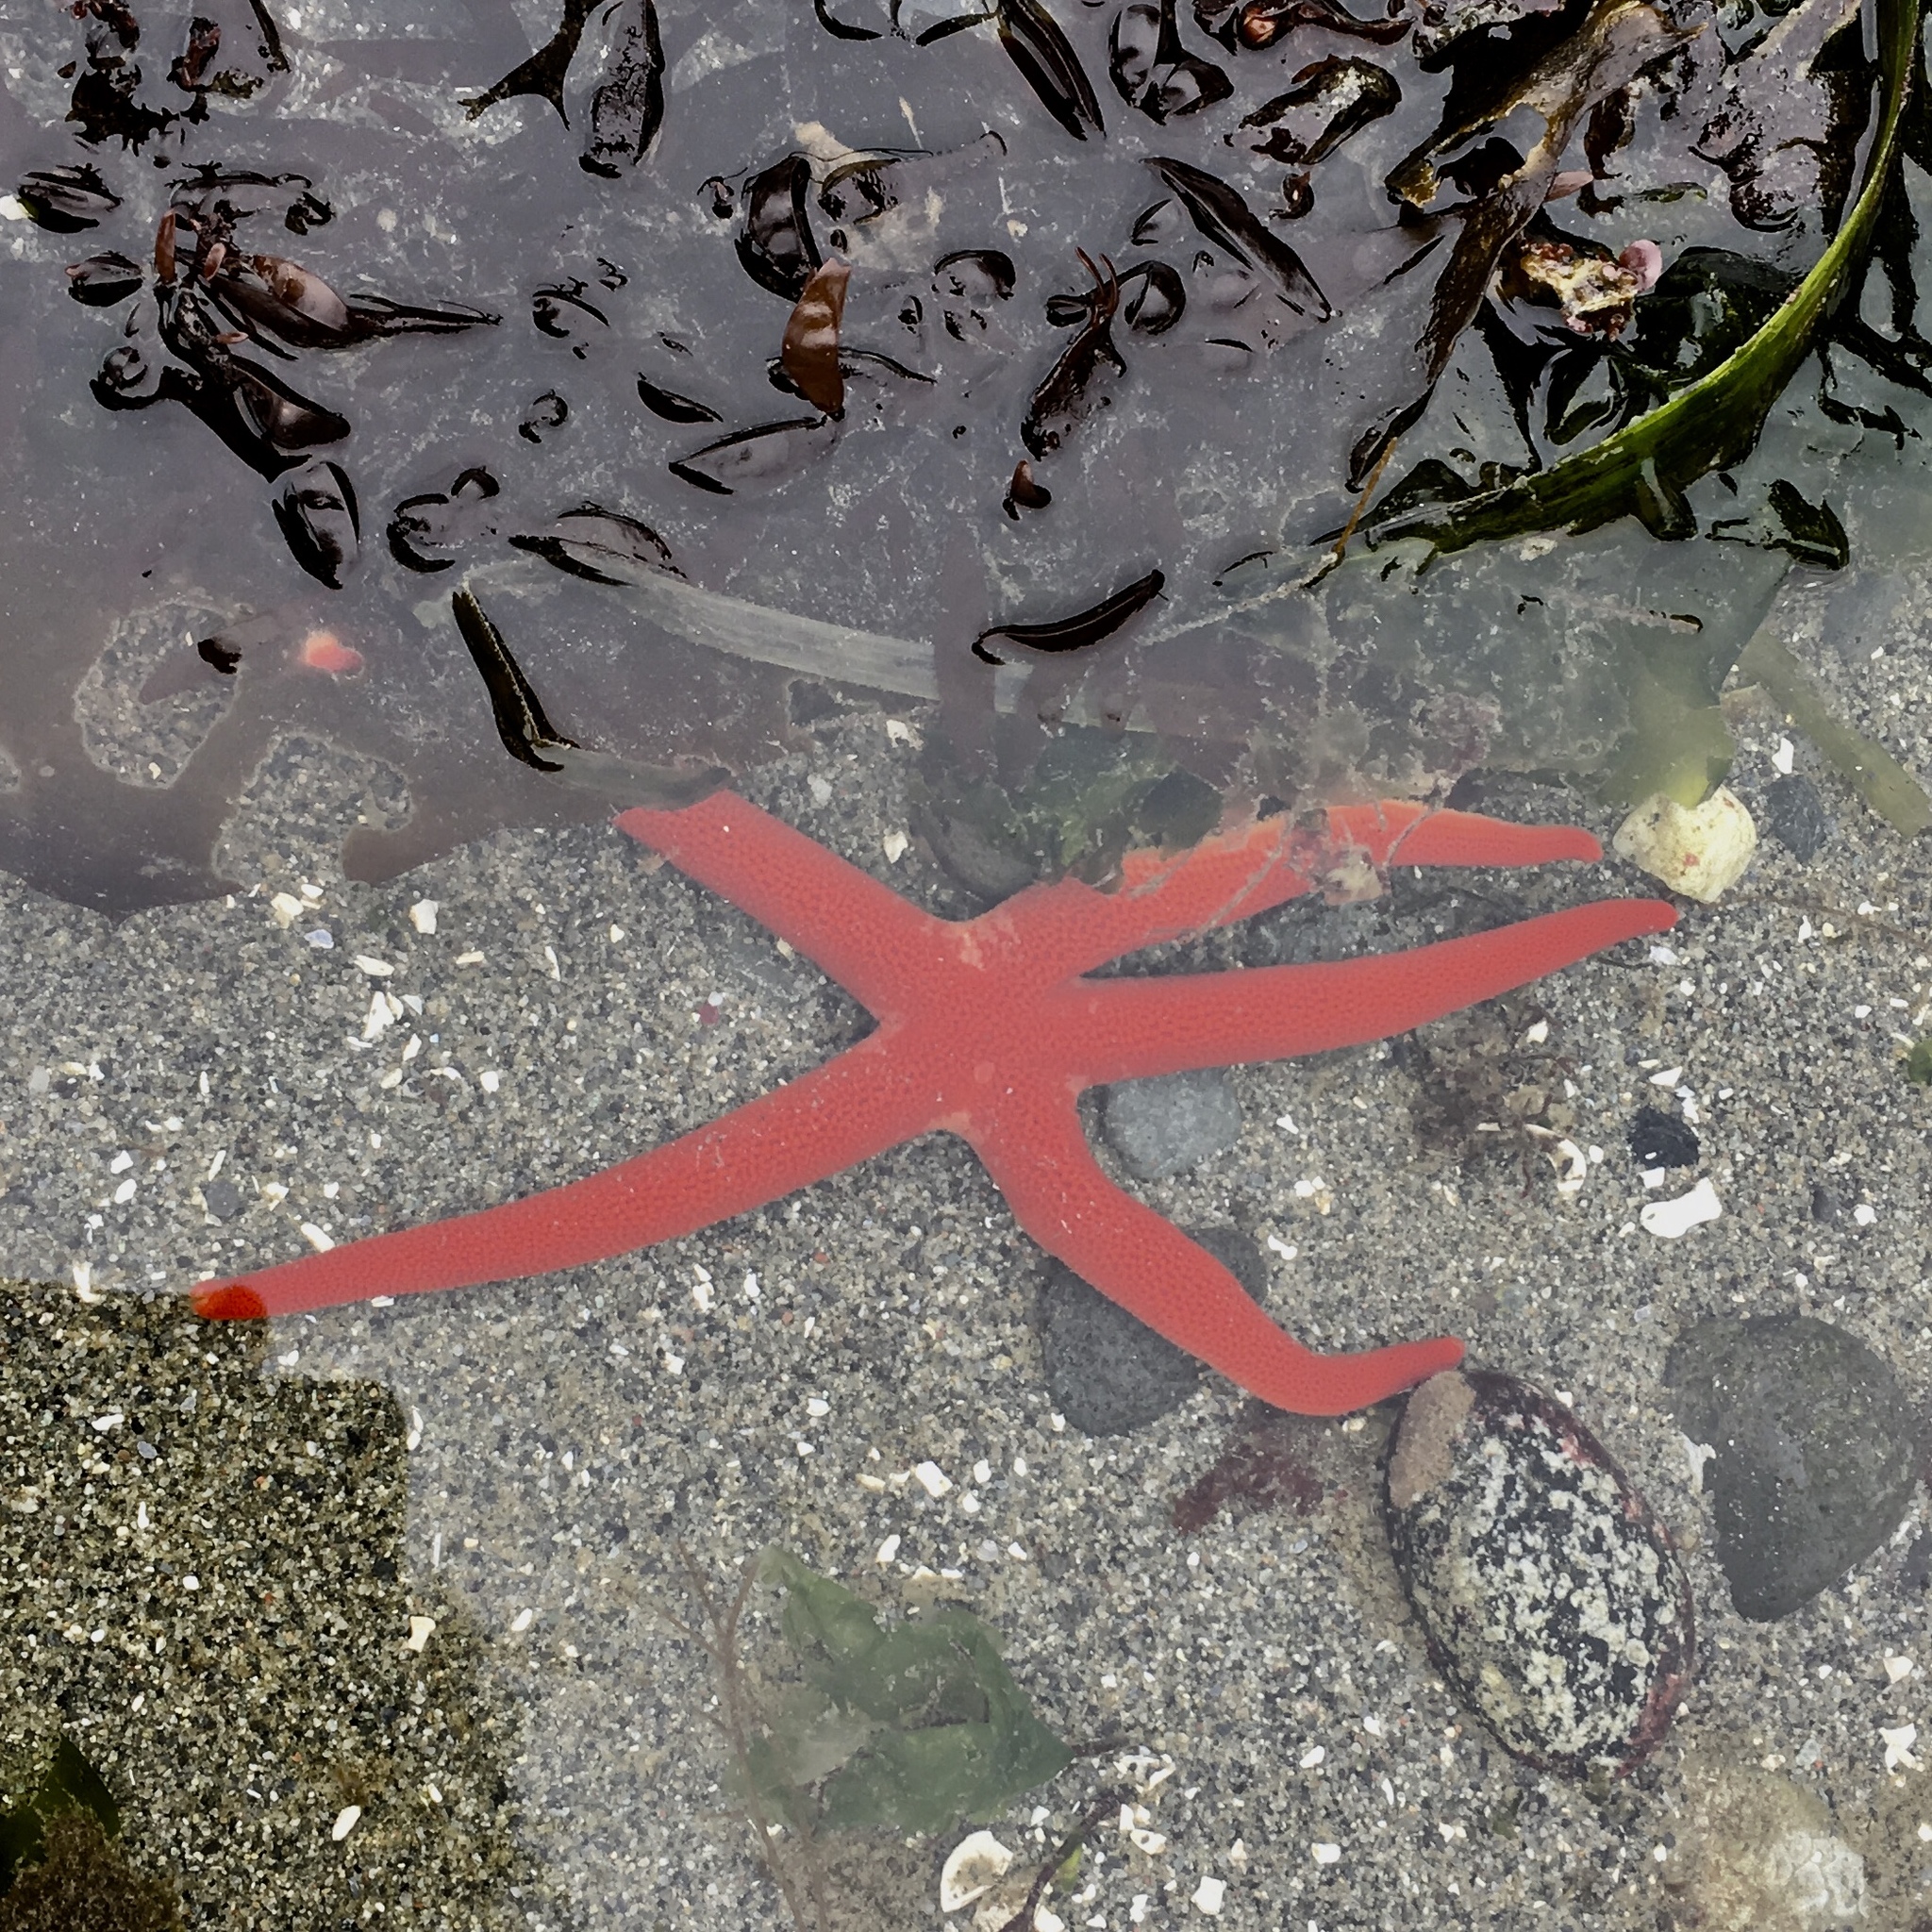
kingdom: Animalia
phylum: Echinodermata
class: Asteroidea
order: Spinulosida
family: Echinasteridae
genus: Henricia
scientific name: Henricia
